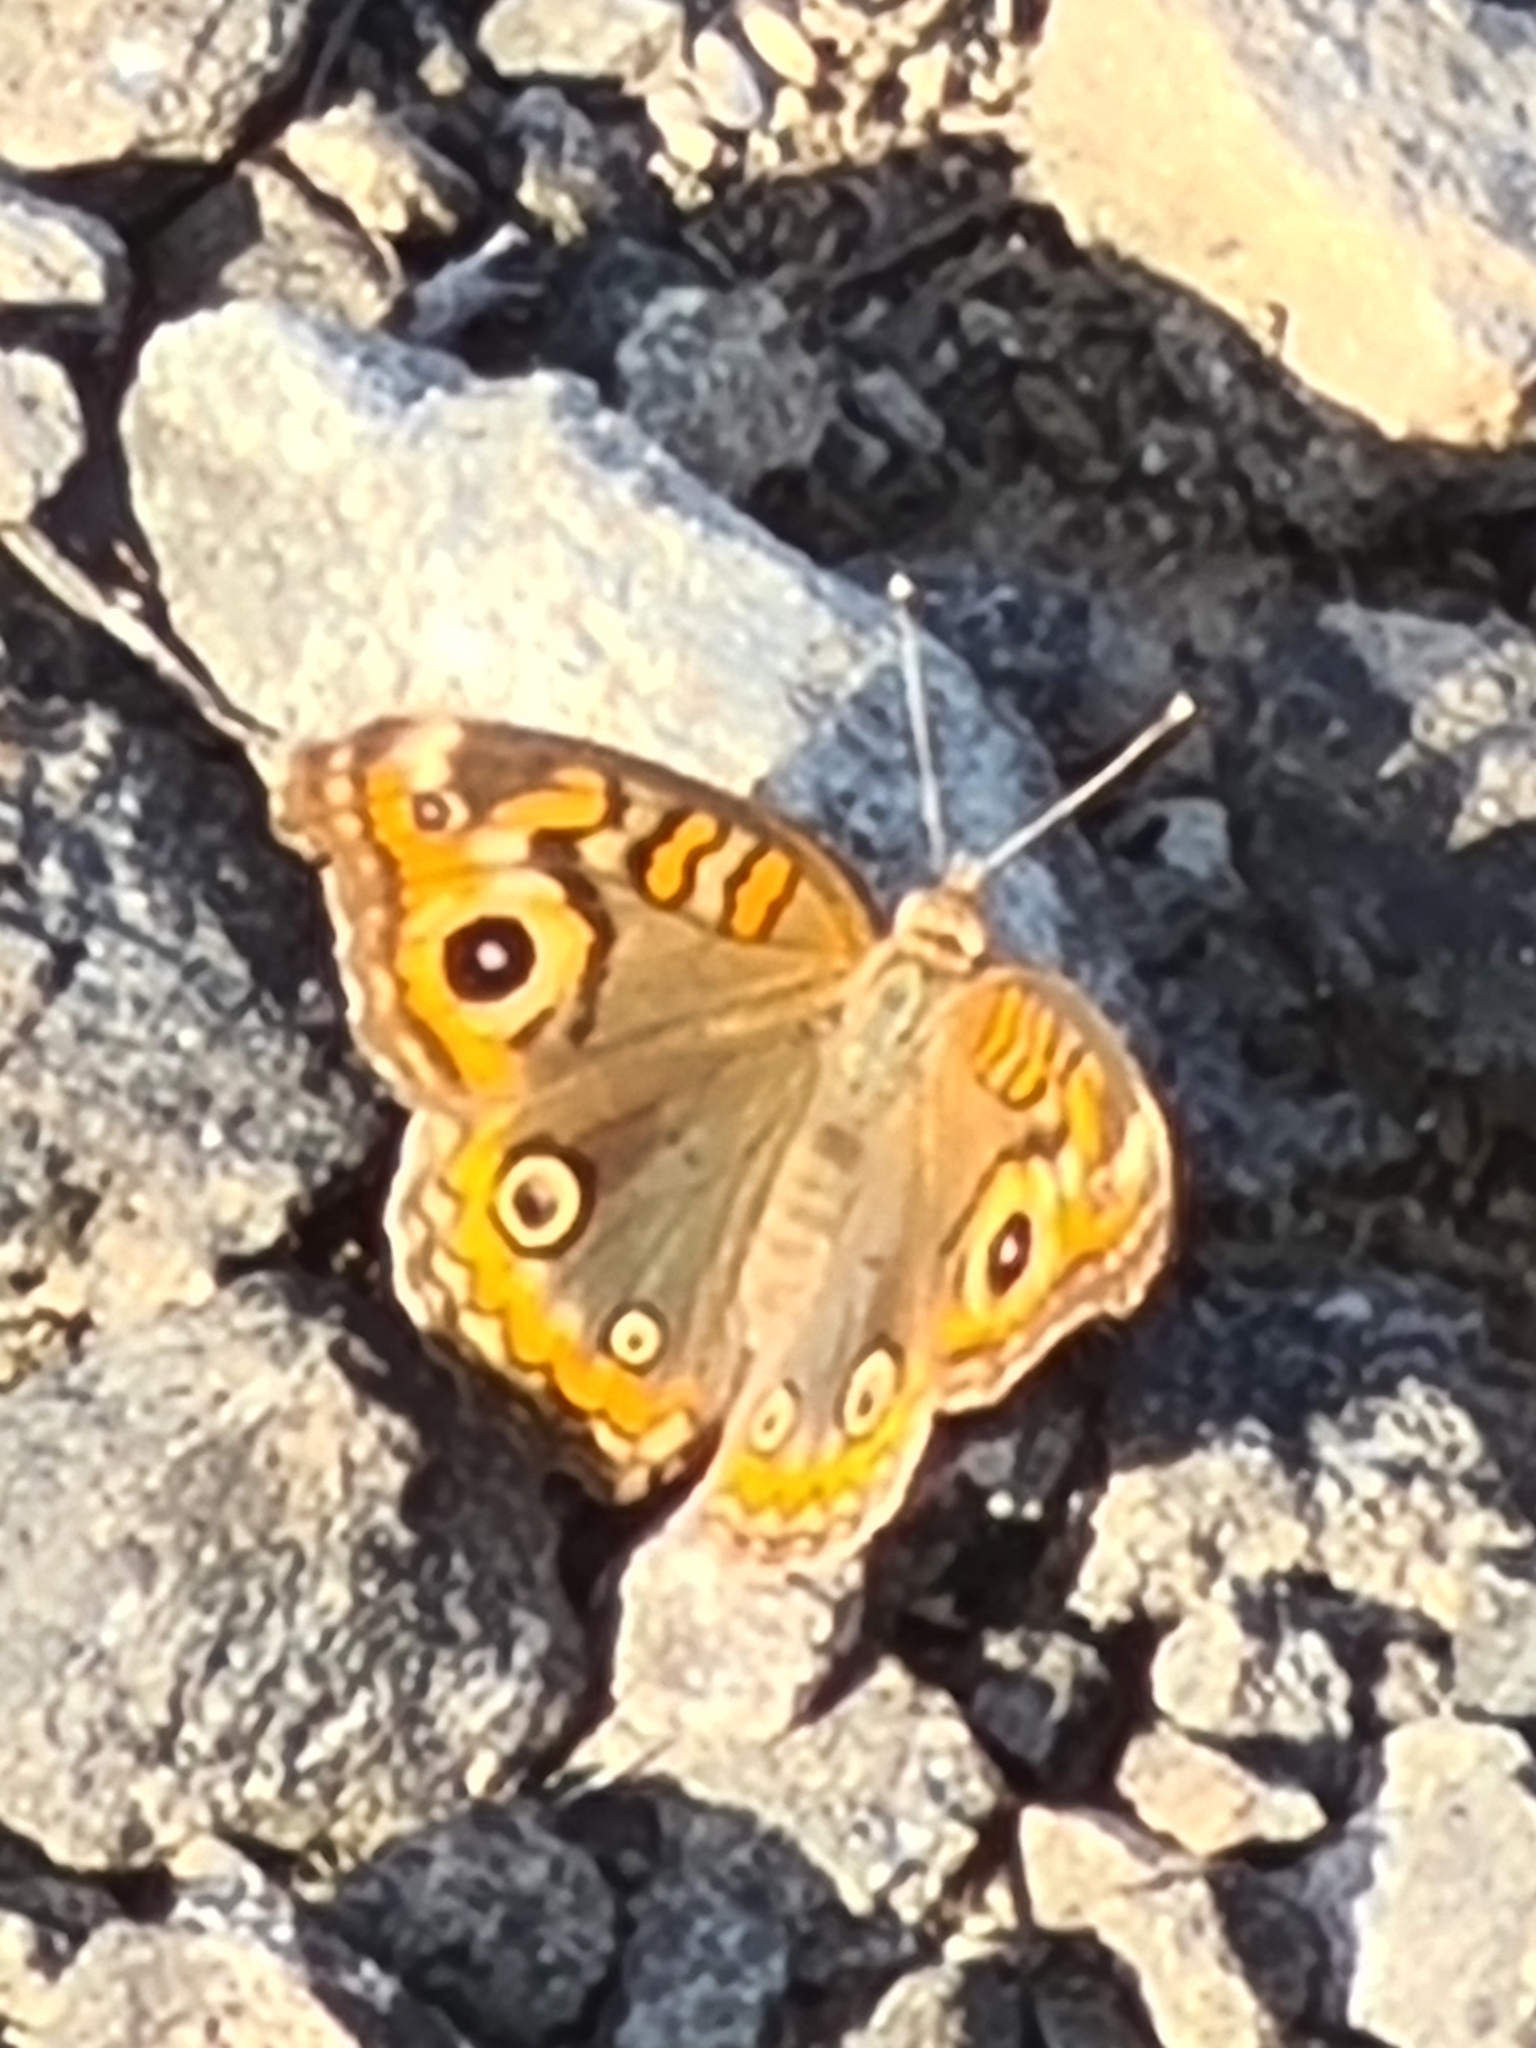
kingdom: Animalia
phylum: Arthropoda
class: Insecta
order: Lepidoptera
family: Nymphalidae
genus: Junonia
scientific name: Junonia evarete
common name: Black mangrove buckeye
